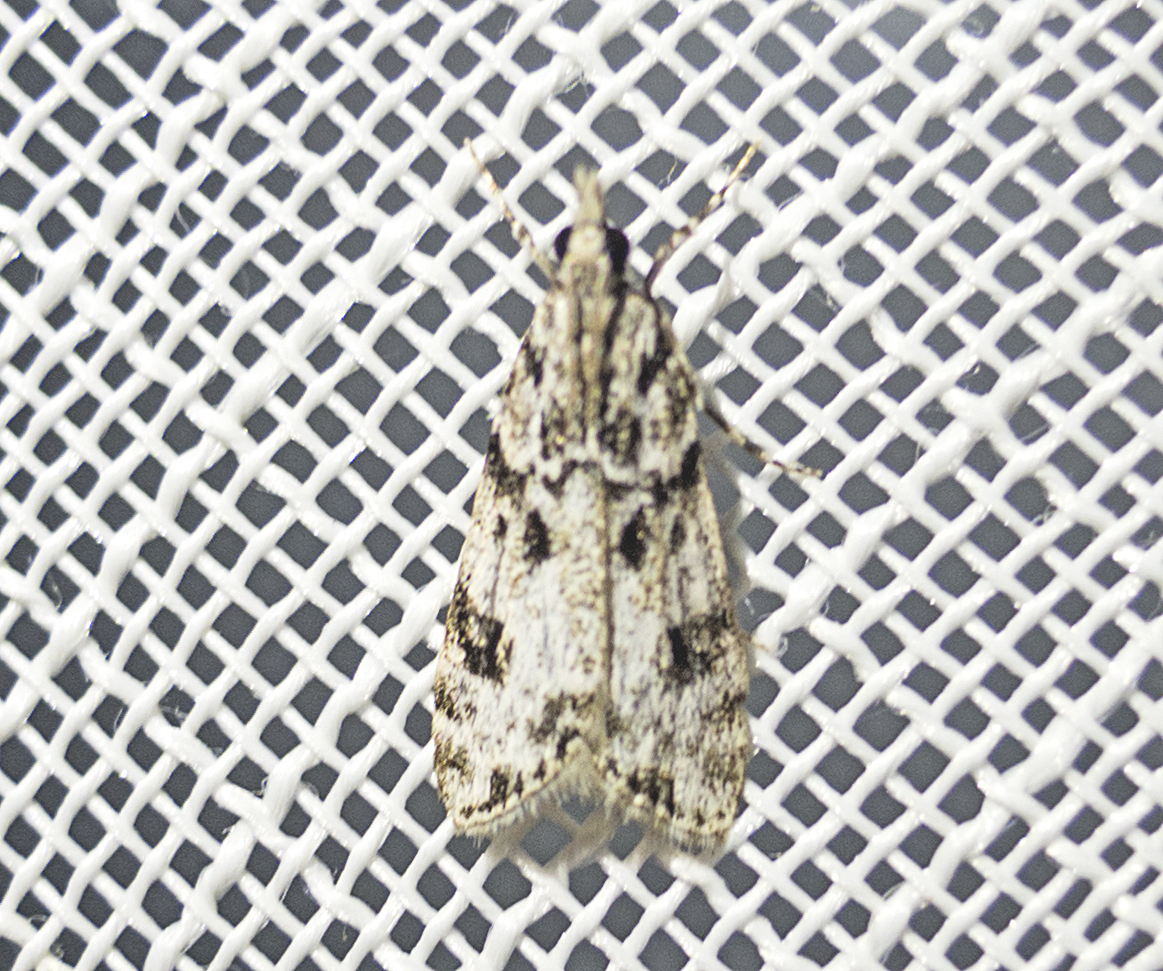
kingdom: Animalia
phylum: Arthropoda
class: Insecta
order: Lepidoptera
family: Crambidae
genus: Eudonia
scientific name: Eudonia delunella
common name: Pied grey
